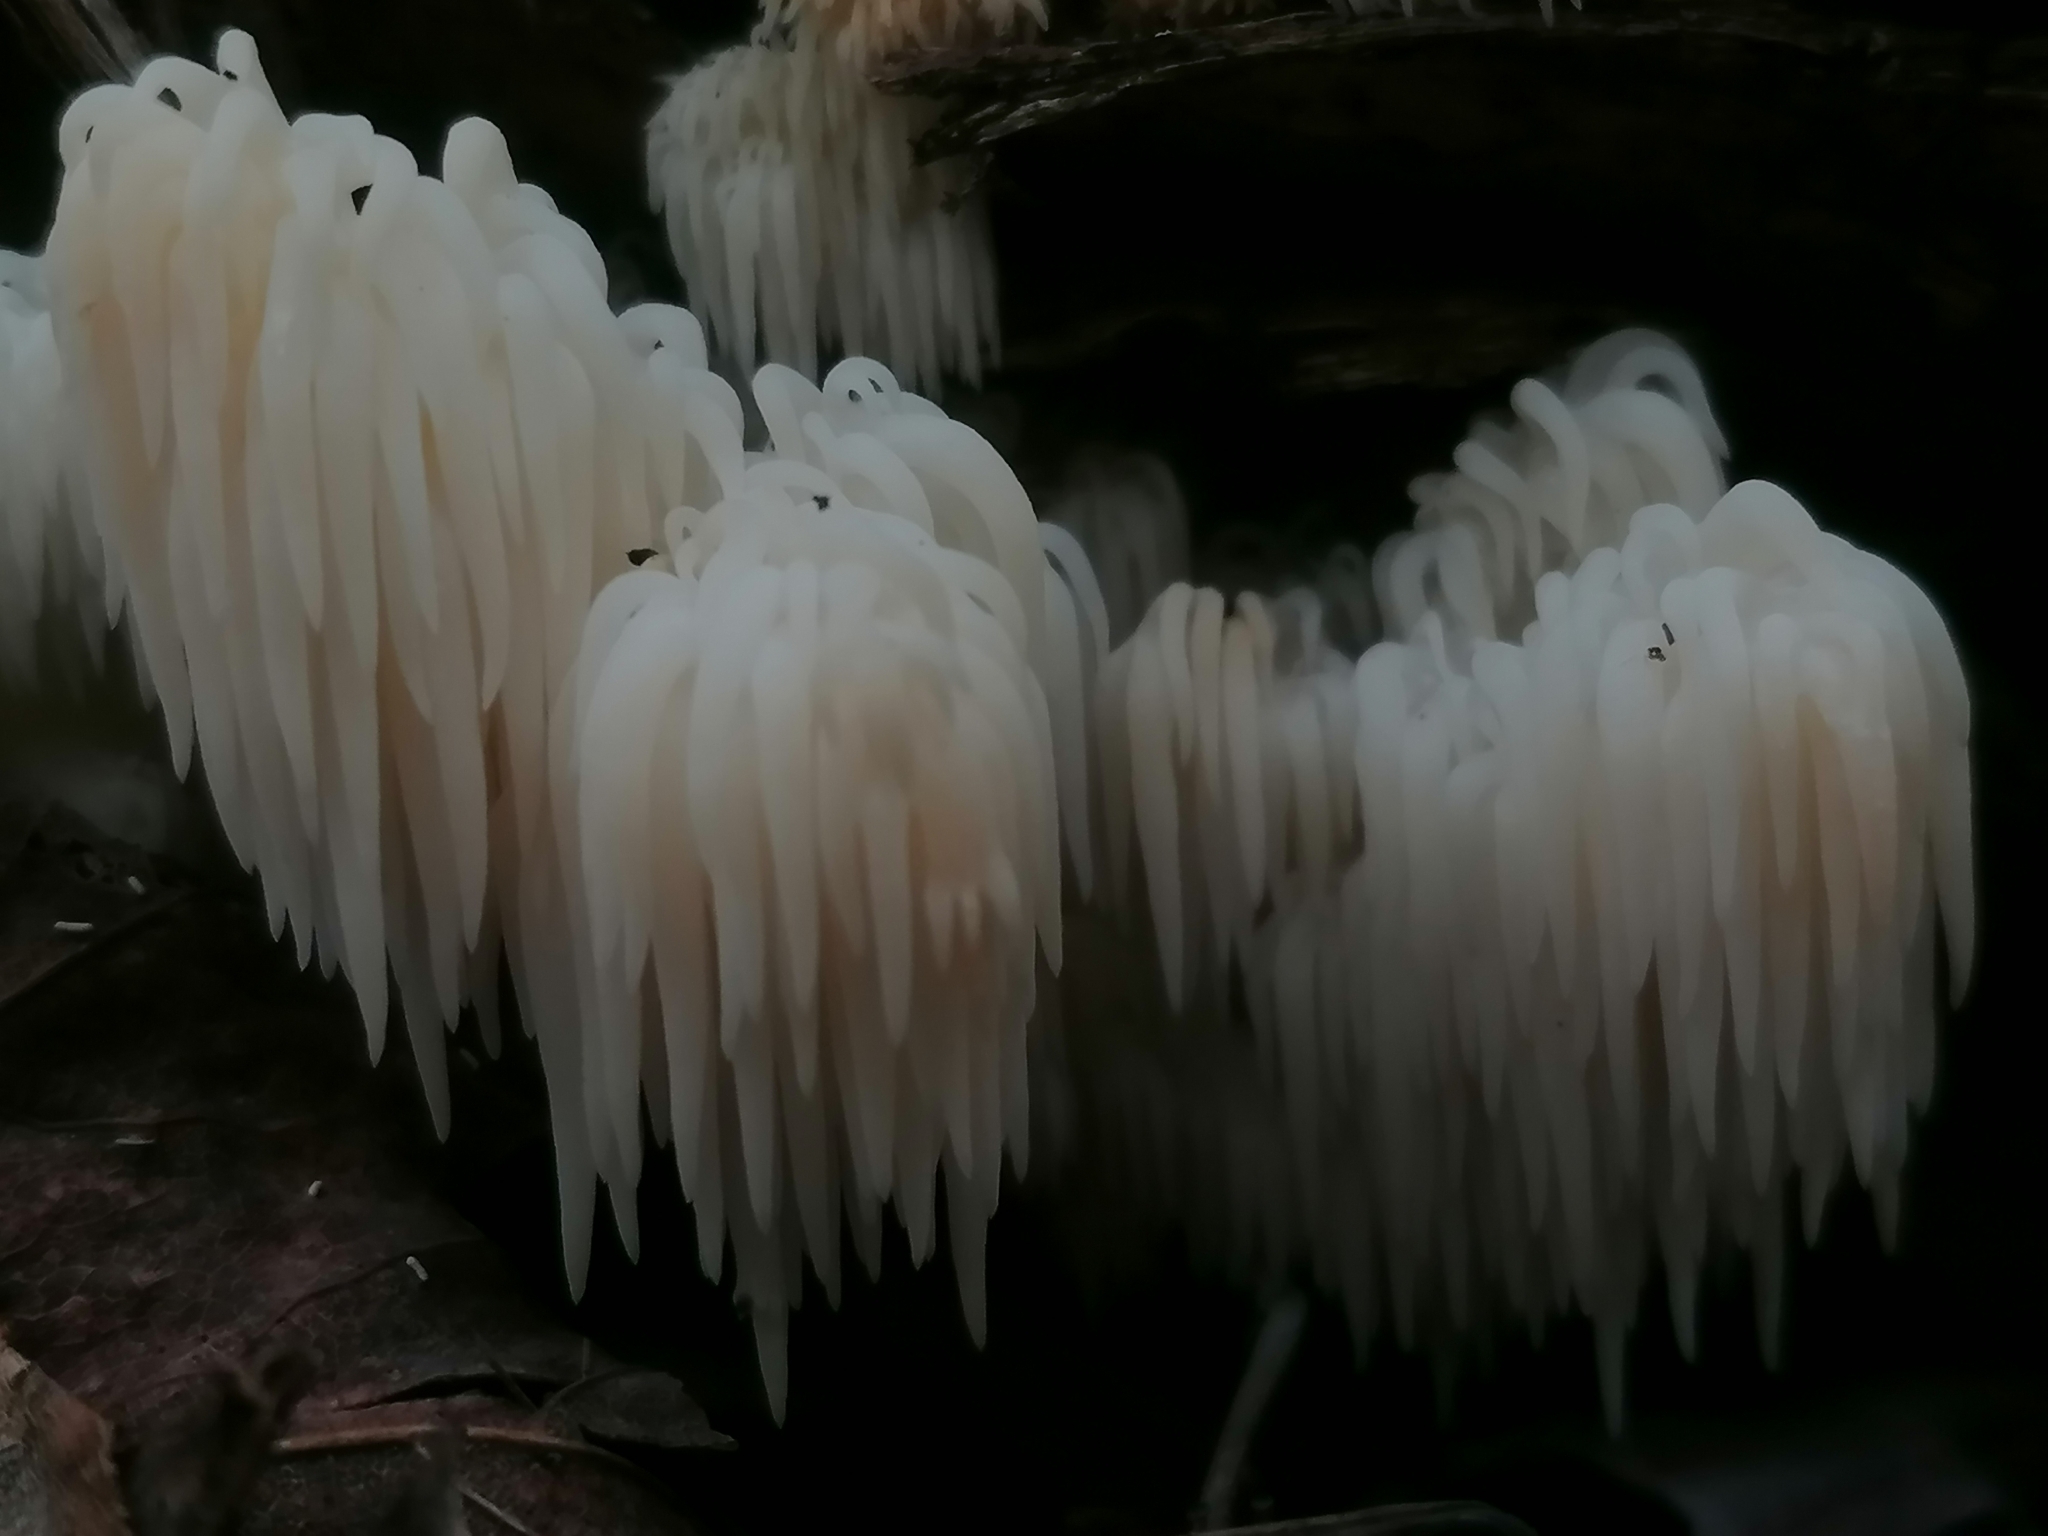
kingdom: Fungi
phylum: Basidiomycota
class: Agaricomycetes
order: Russulales
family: Hericiaceae
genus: Hericium
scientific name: Hericium americanum
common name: Bear's head tooth
